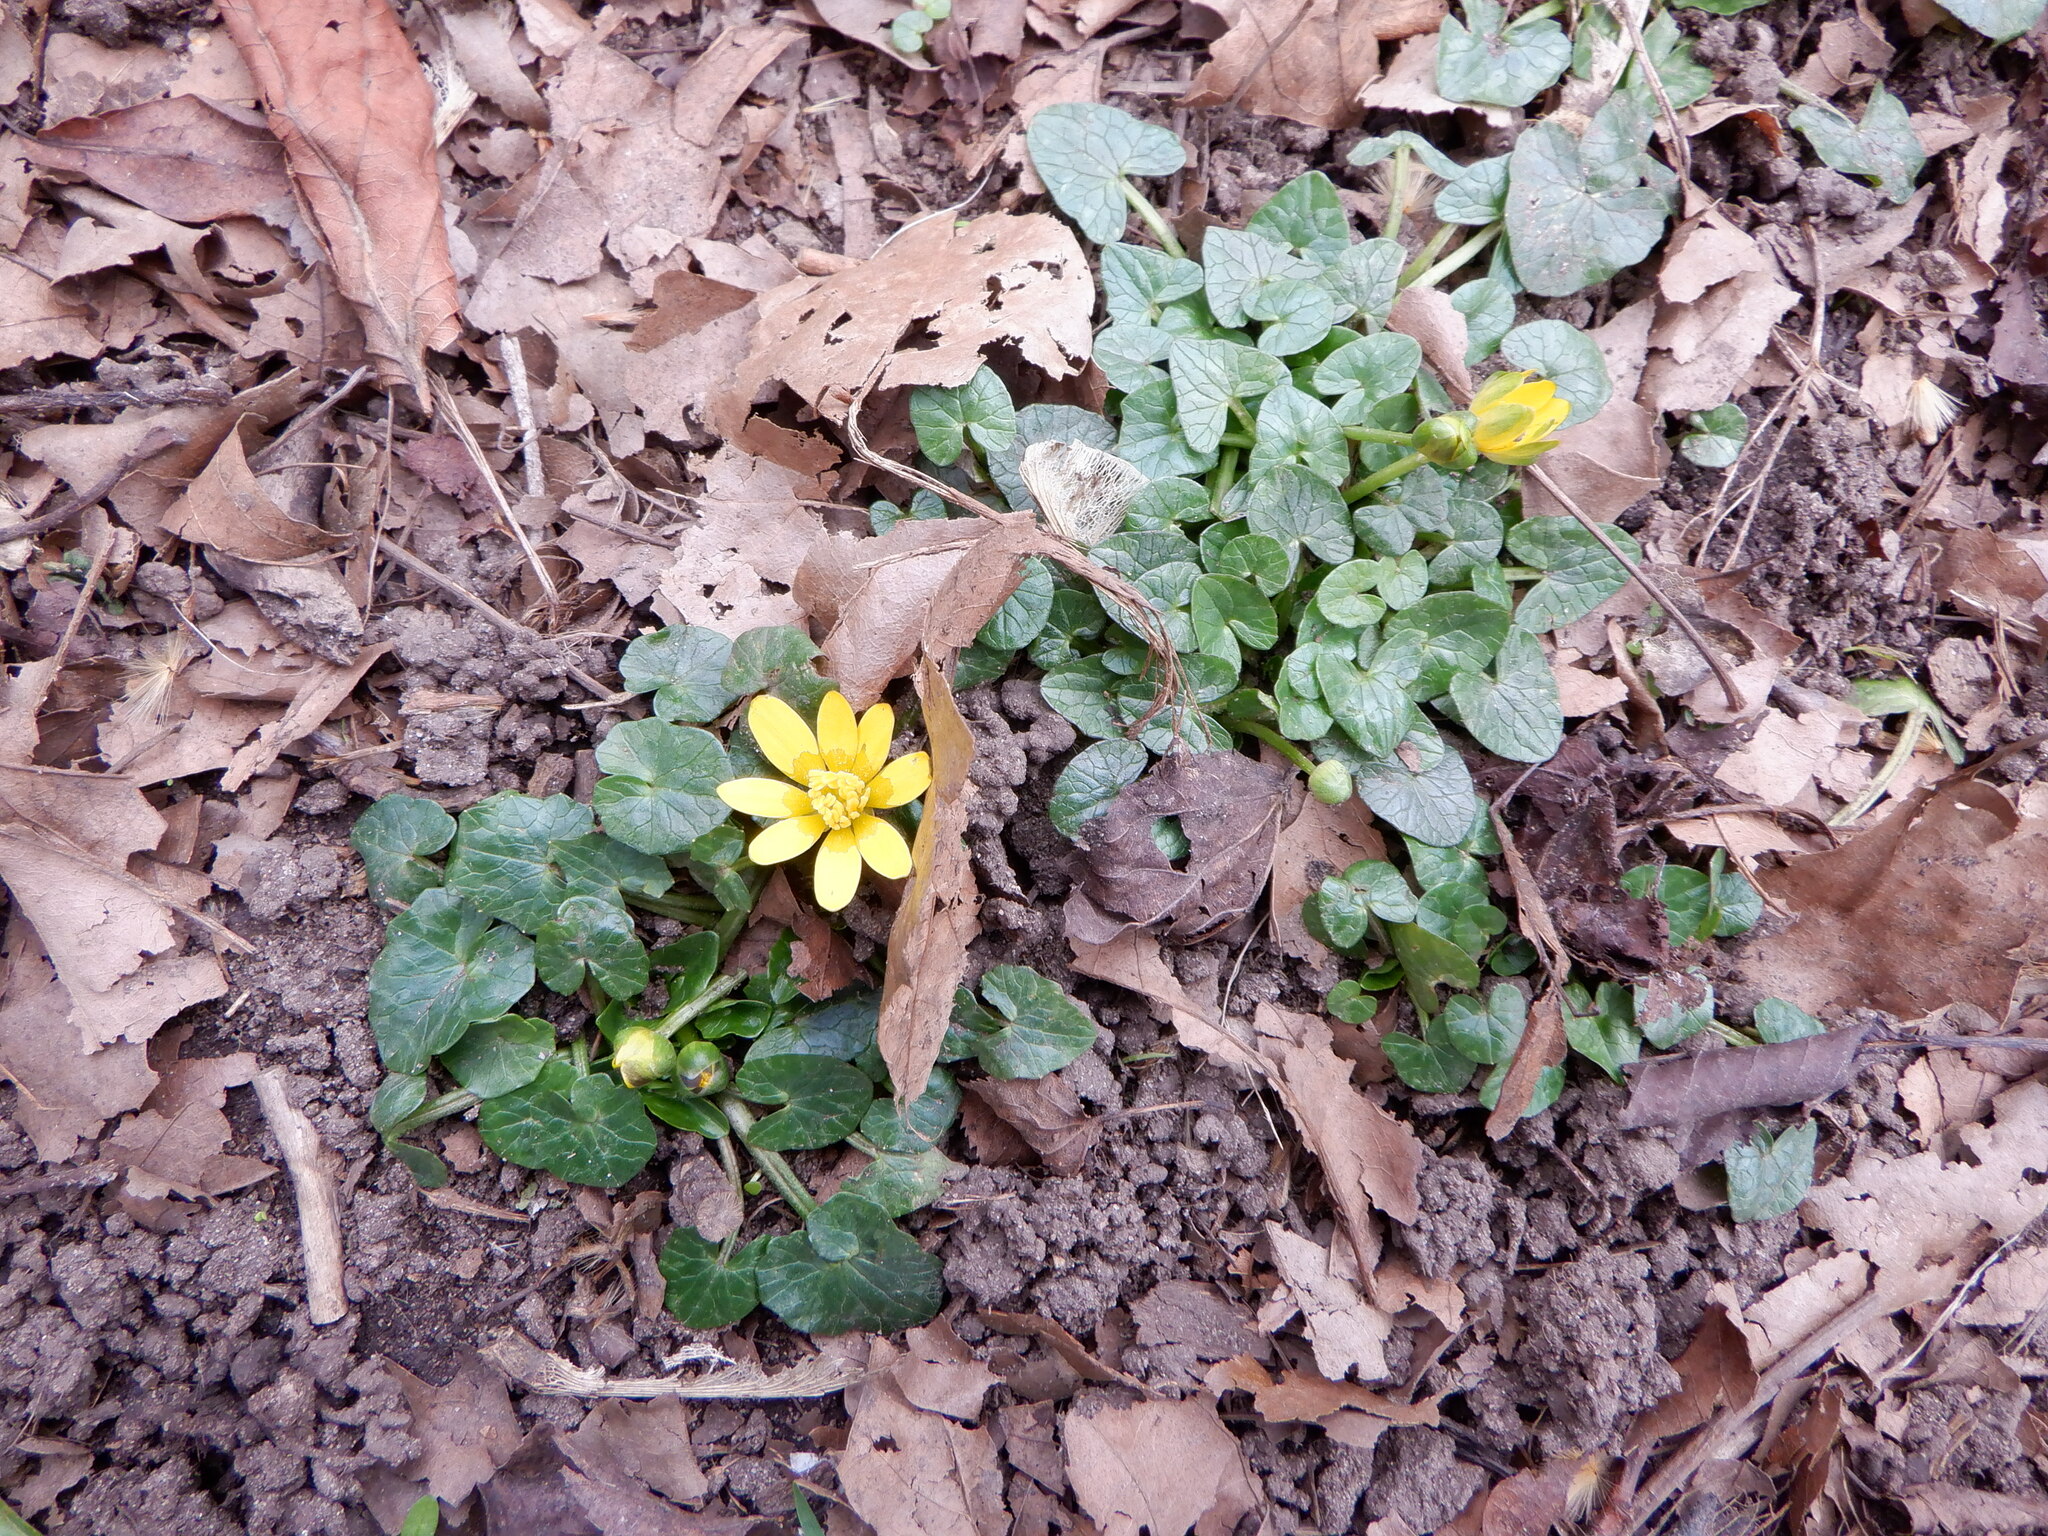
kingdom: Plantae
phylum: Tracheophyta
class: Magnoliopsida
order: Ranunculales
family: Ranunculaceae
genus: Ficaria
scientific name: Ficaria verna
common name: Lesser celandine
